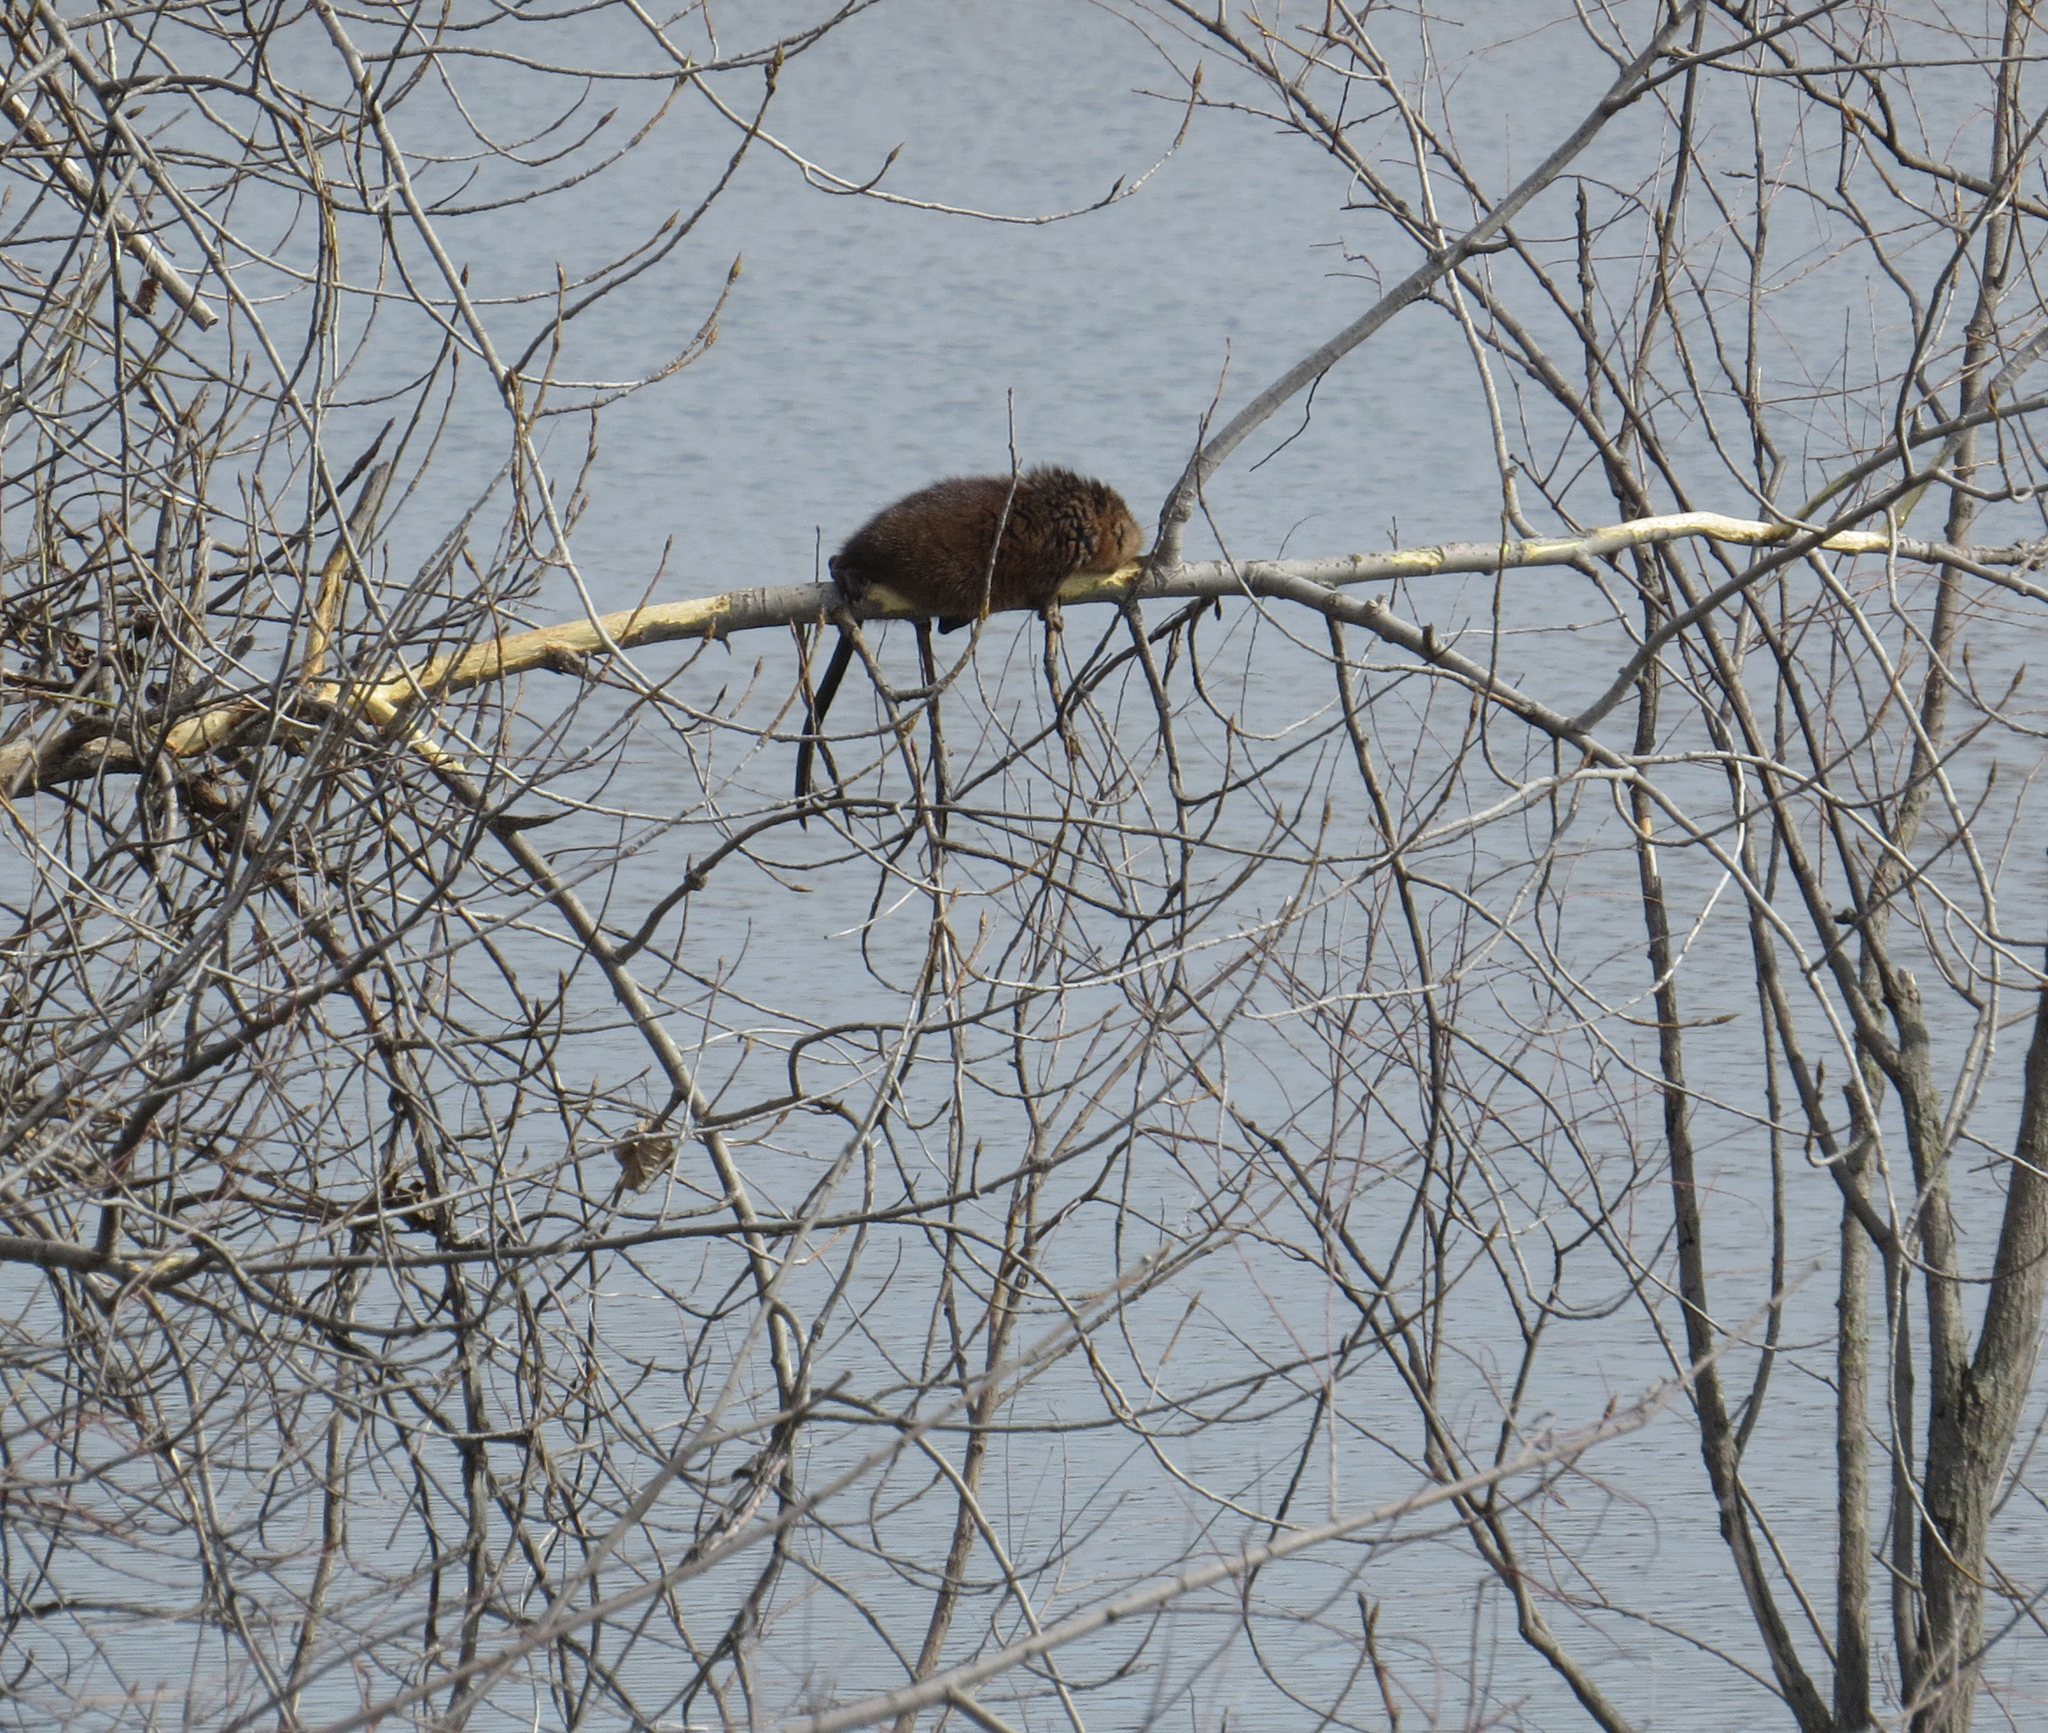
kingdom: Animalia
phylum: Chordata
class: Mammalia
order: Rodentia
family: Cricetidae
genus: Ondatra
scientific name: Ondatra zibethicus
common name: Muskrat
